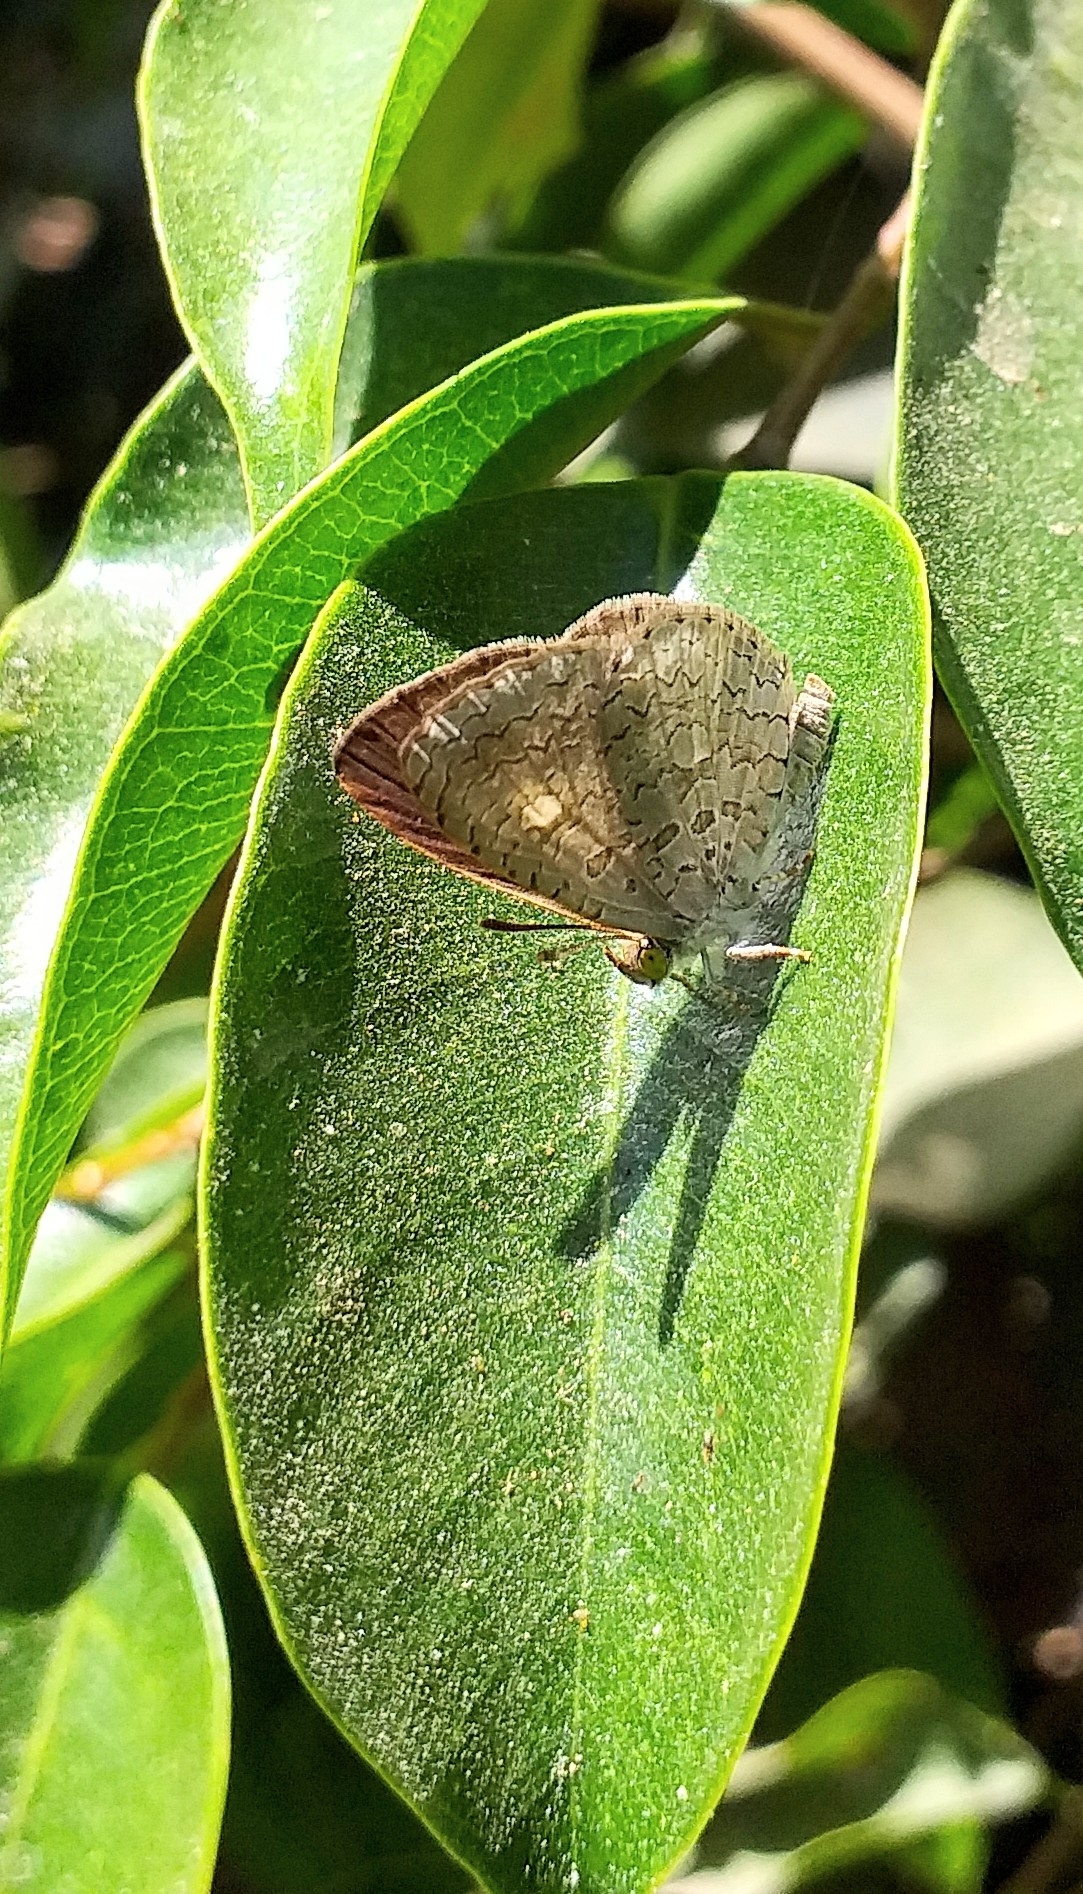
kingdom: Animalia
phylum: Arthropoda
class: Insecta
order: Lepidoptera
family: Lycaenidae
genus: Spalgis
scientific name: Spalgis epius
